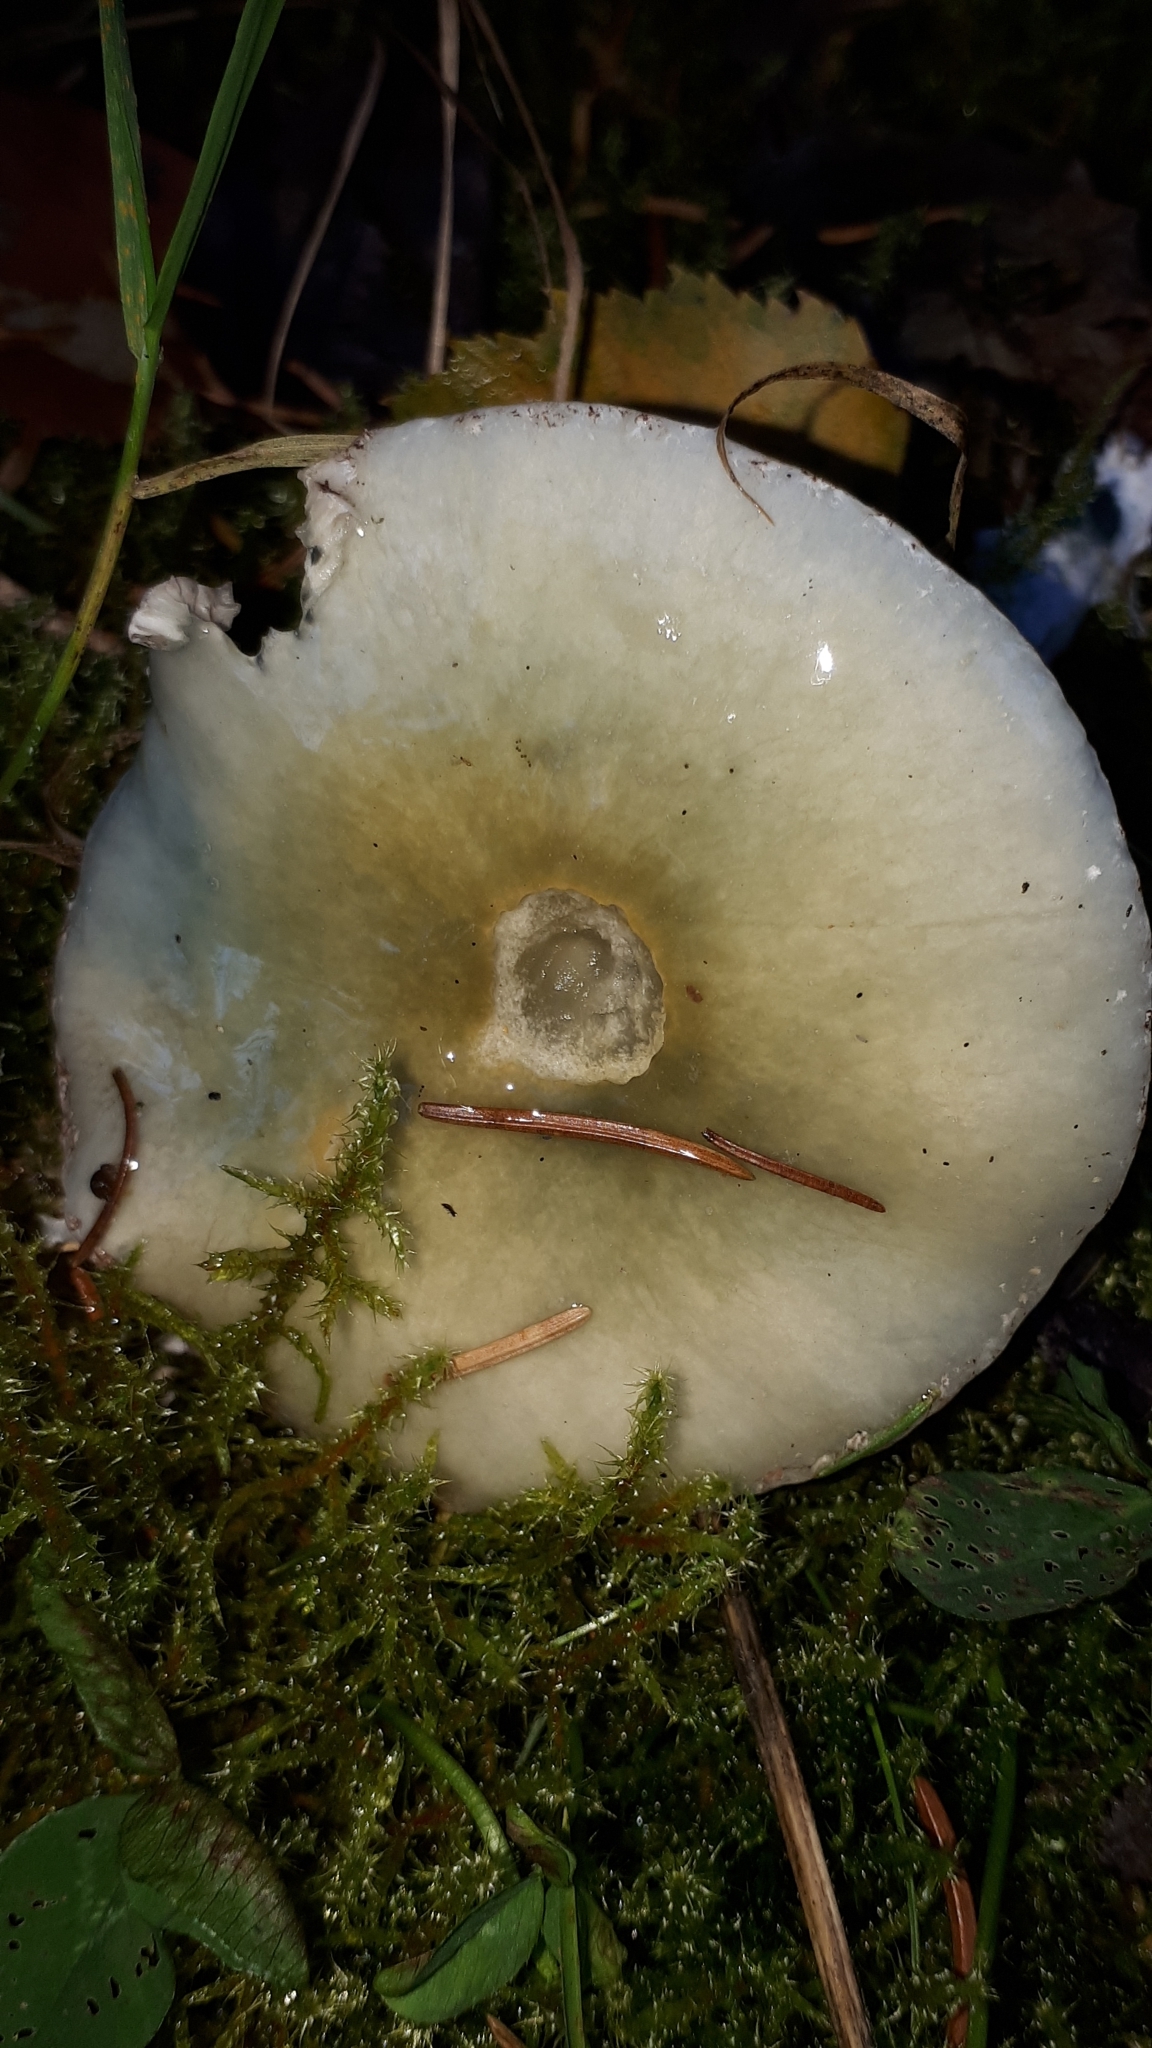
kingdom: Fungi
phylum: Basidiomycota
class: Agaricomycetes
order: Agaricales
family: Strophariaceae
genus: Stropharia
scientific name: Stropharia aeruginosa
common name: Verdigris roundhead
